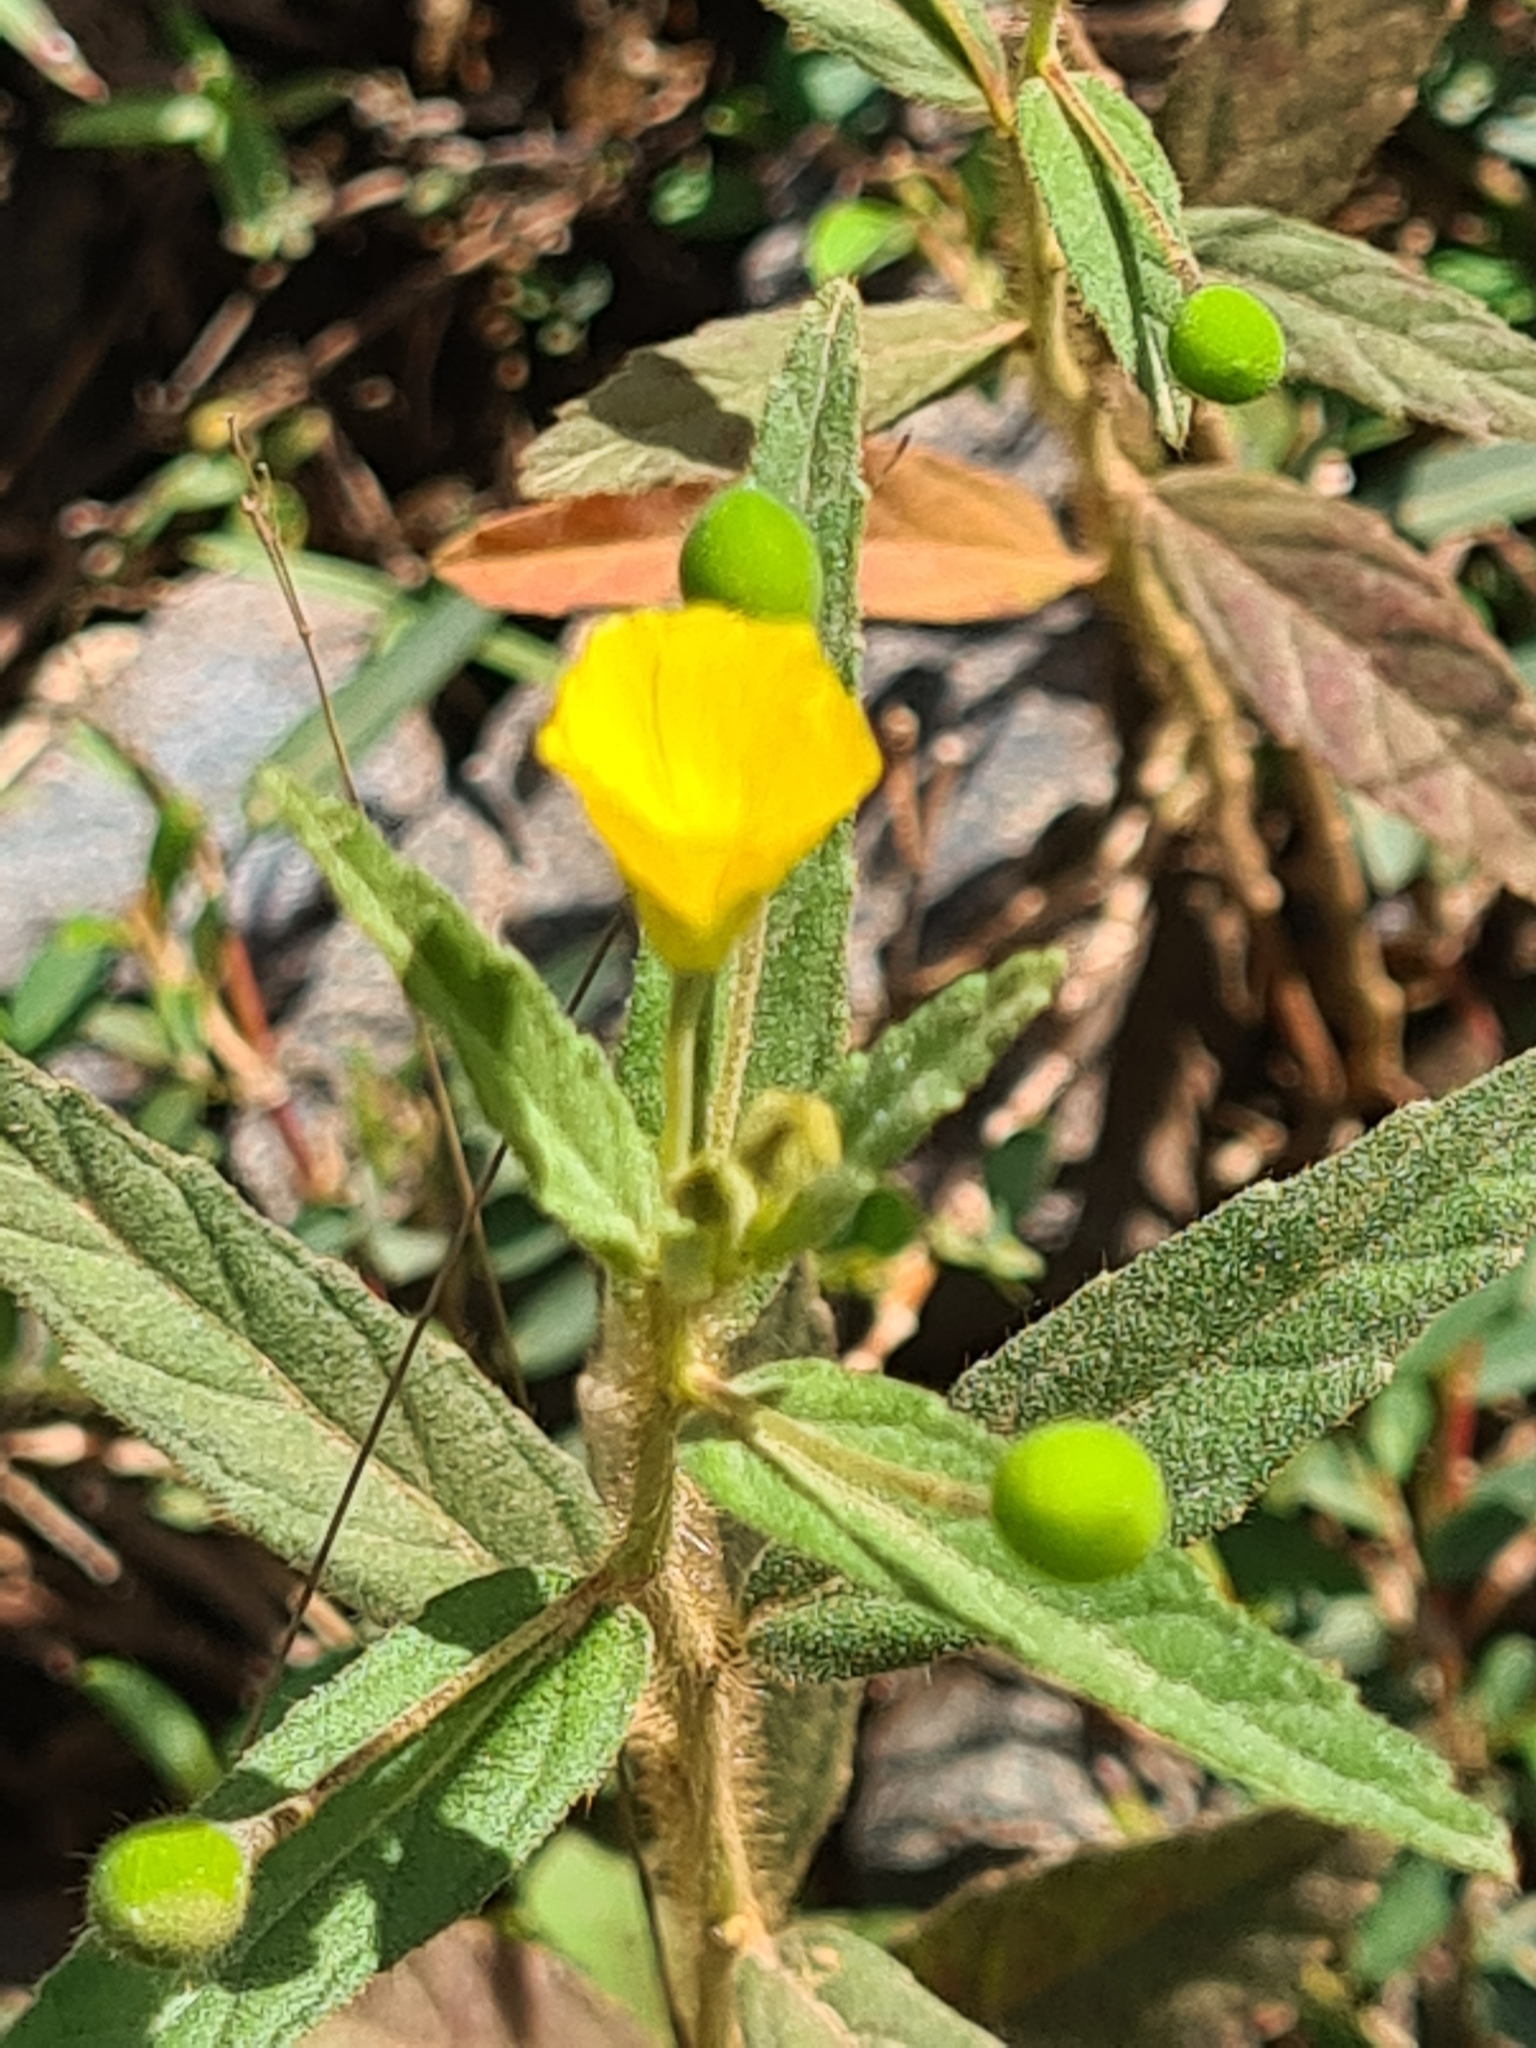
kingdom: Plantae
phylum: Tracheophyta
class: Magnoliopsida
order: Malpighiales
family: Turneraceae
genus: Piriqueta
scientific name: Piriqueta cistoides
